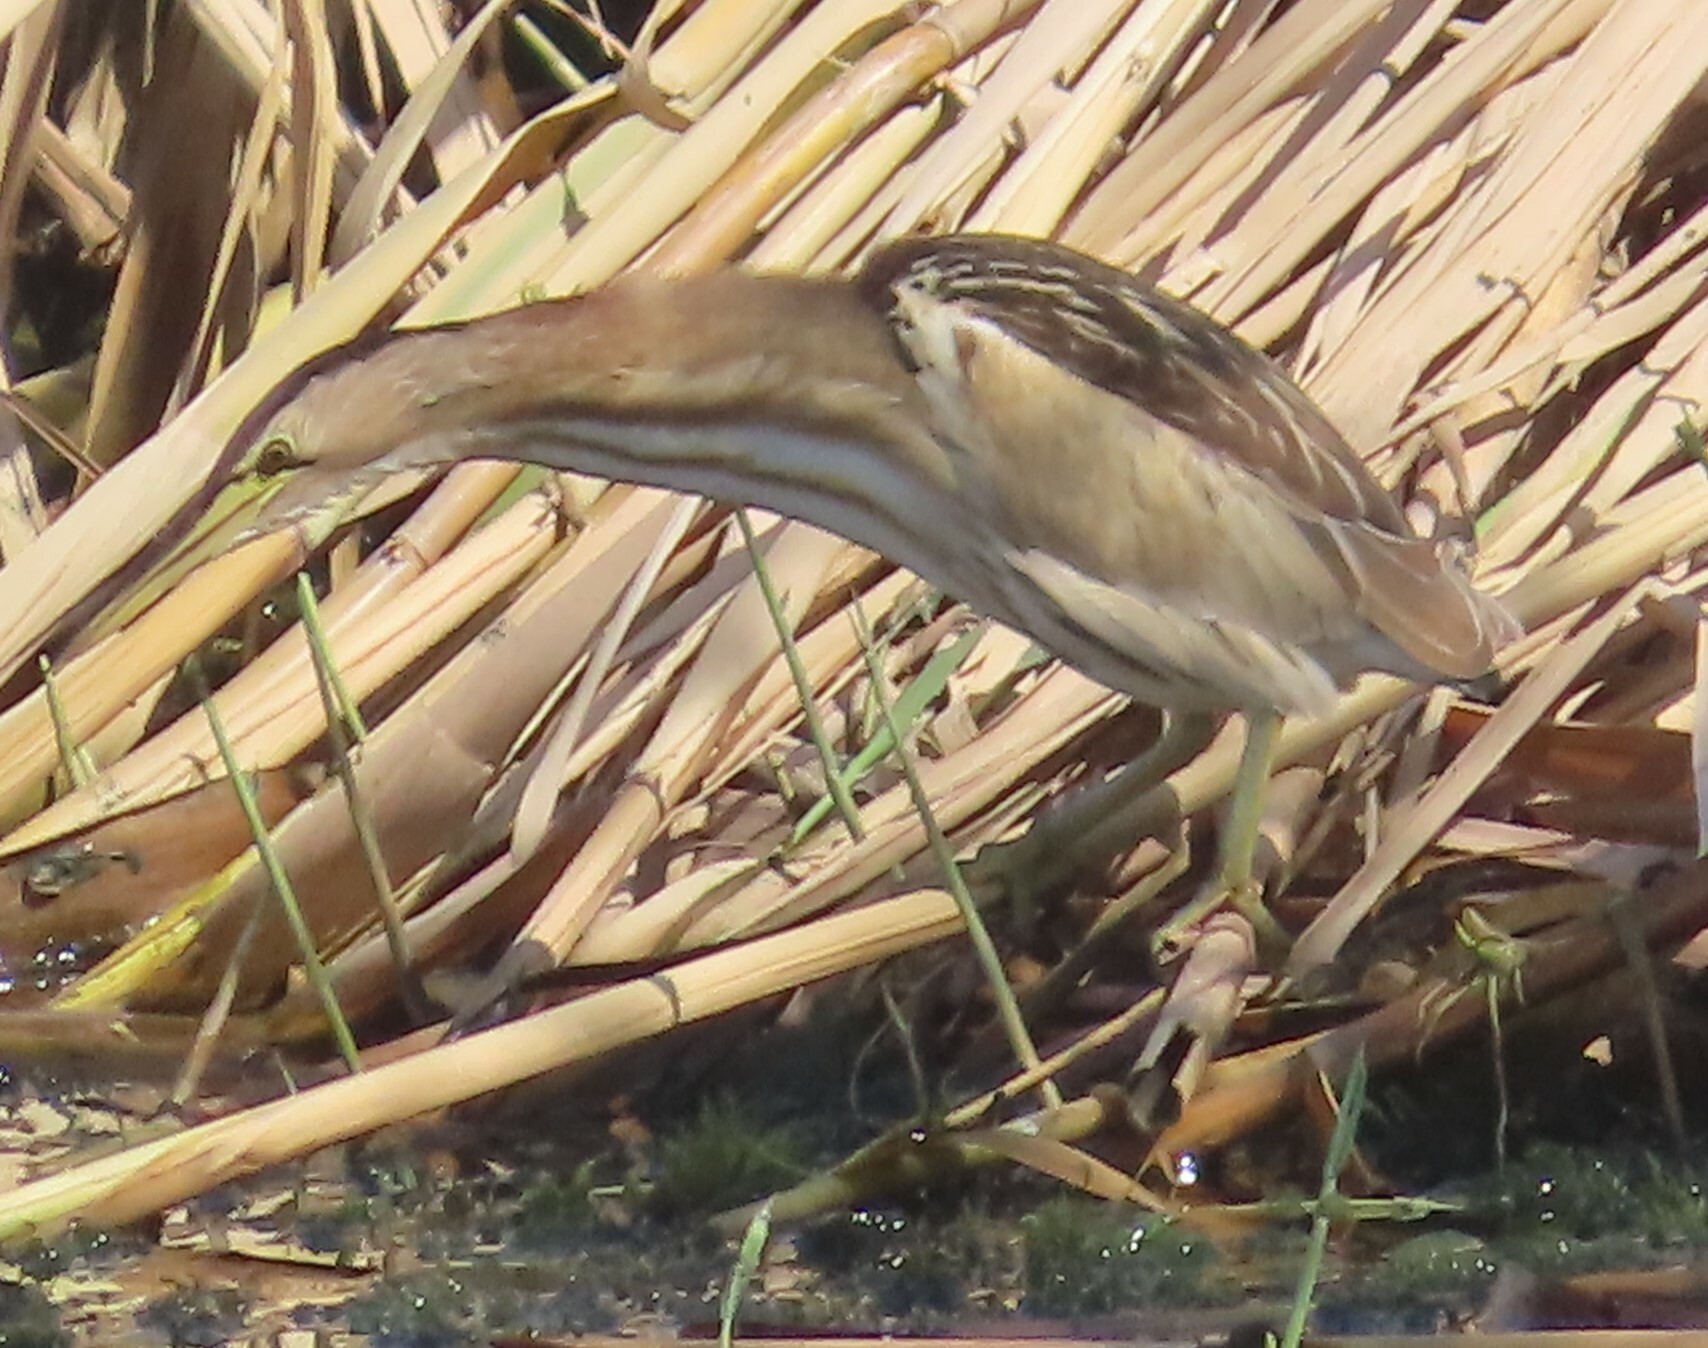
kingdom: Animalia
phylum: Chordata
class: Aves
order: Pelecaniformes
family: Ardeidae
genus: Ixobrychus
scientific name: Ixobrychus minutus
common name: Little bittern
